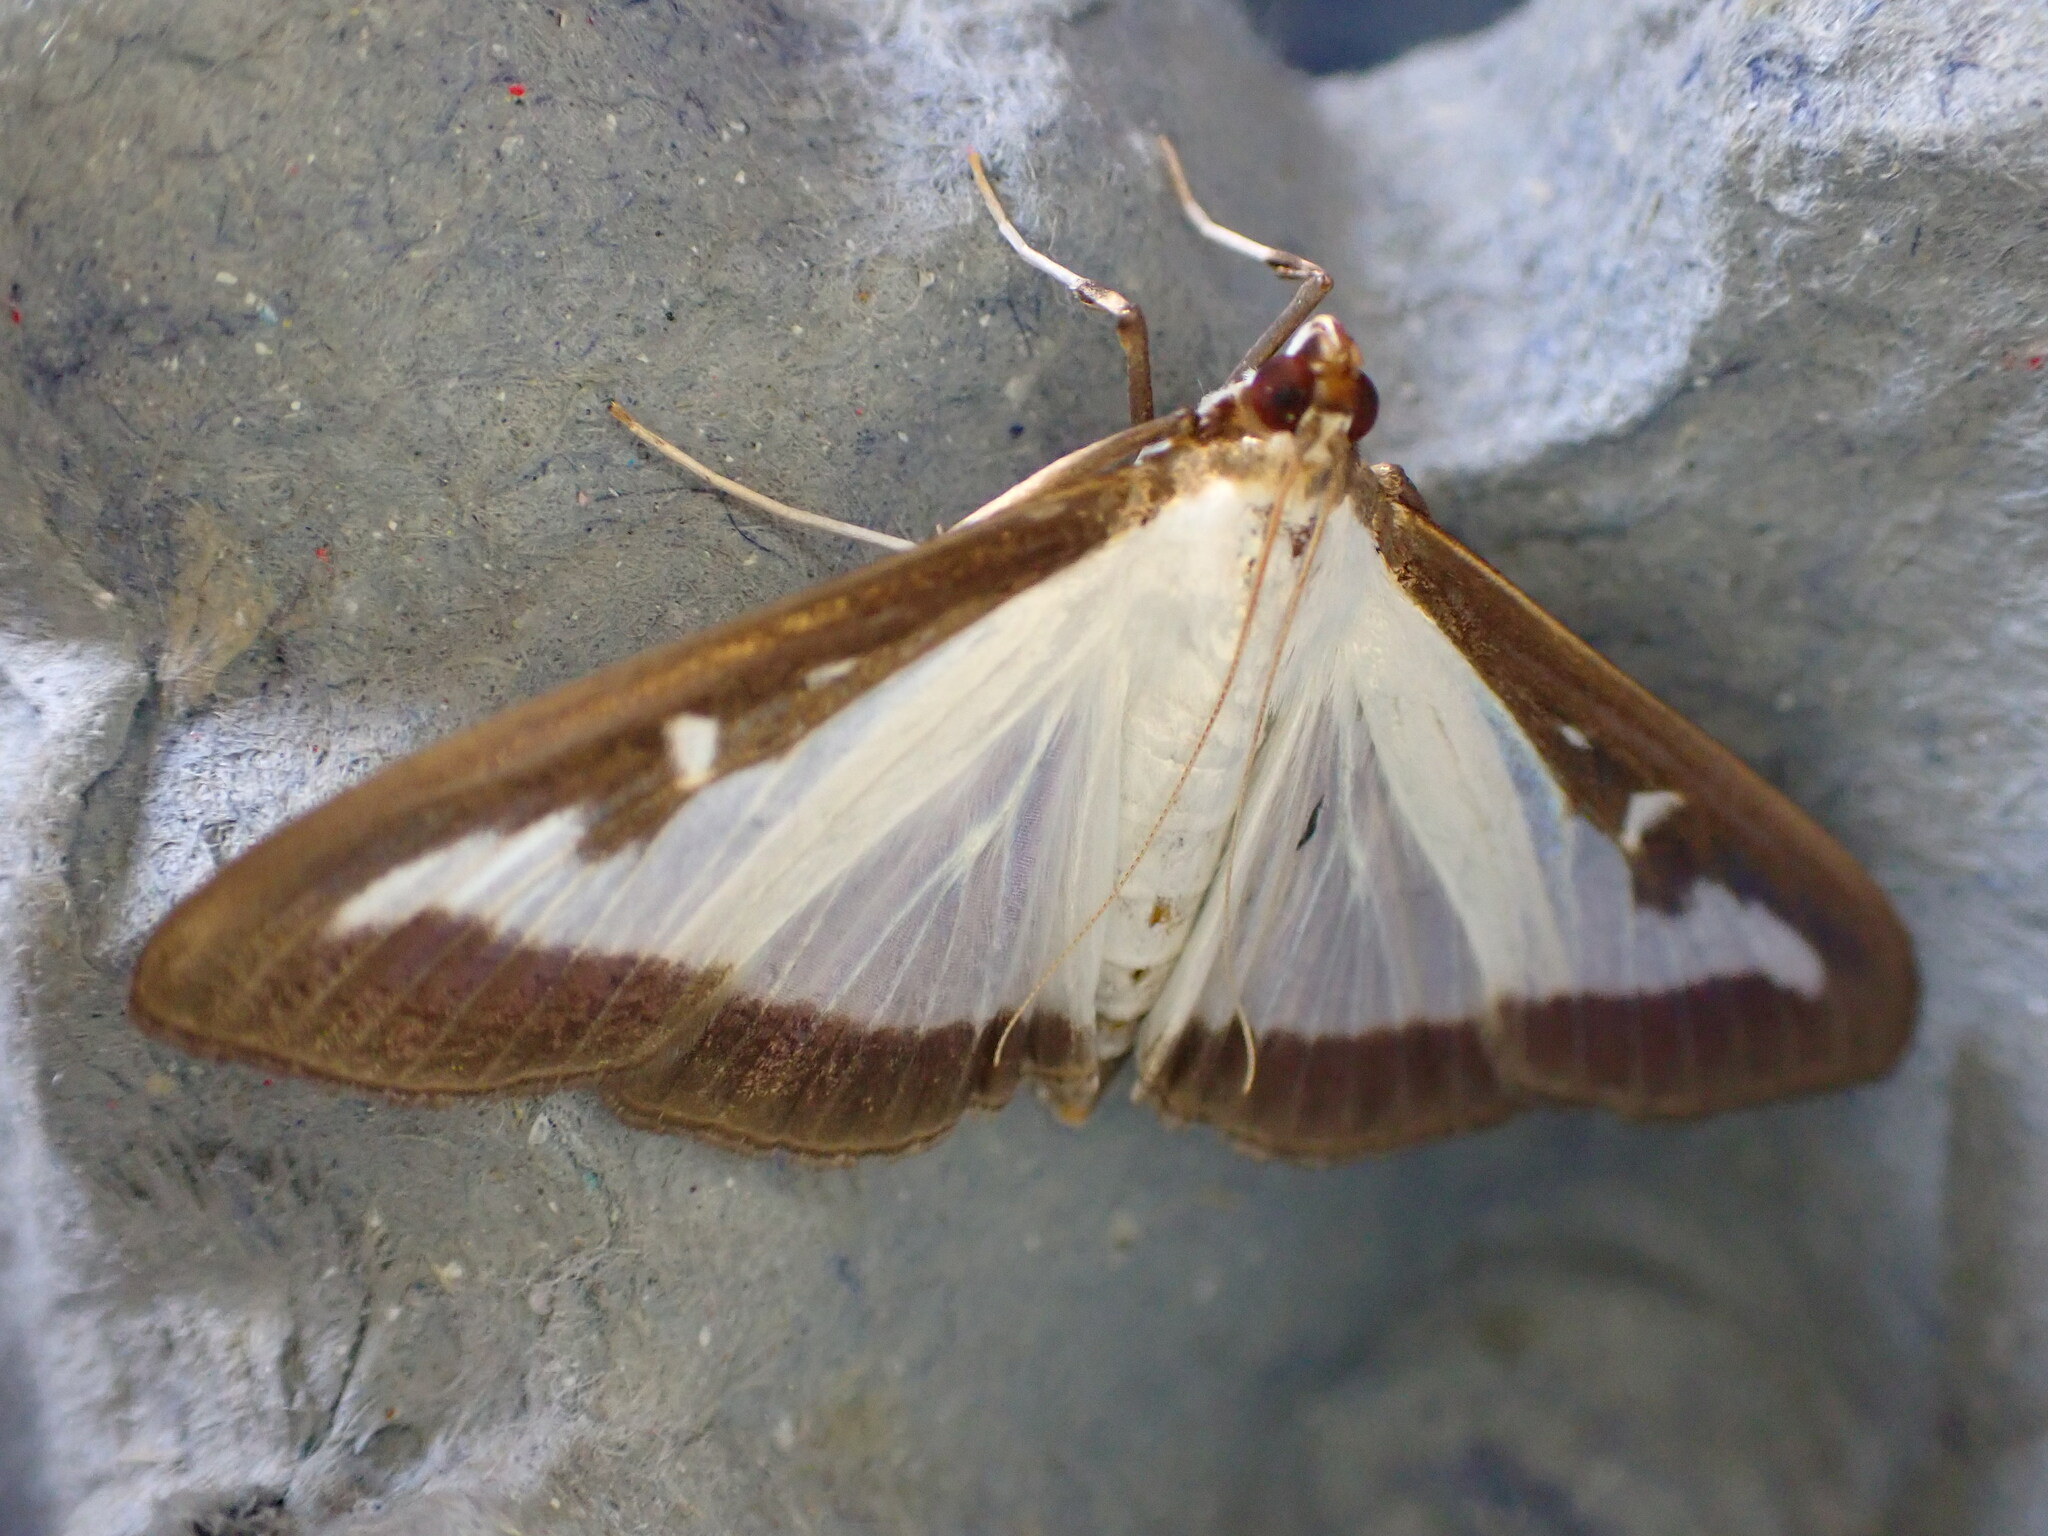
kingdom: Animalia
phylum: Arthropoda
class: Insecta
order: Lepidoptera
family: Crambidae
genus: Cydalima
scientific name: Cydalima perspectalis
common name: Box tree moth
